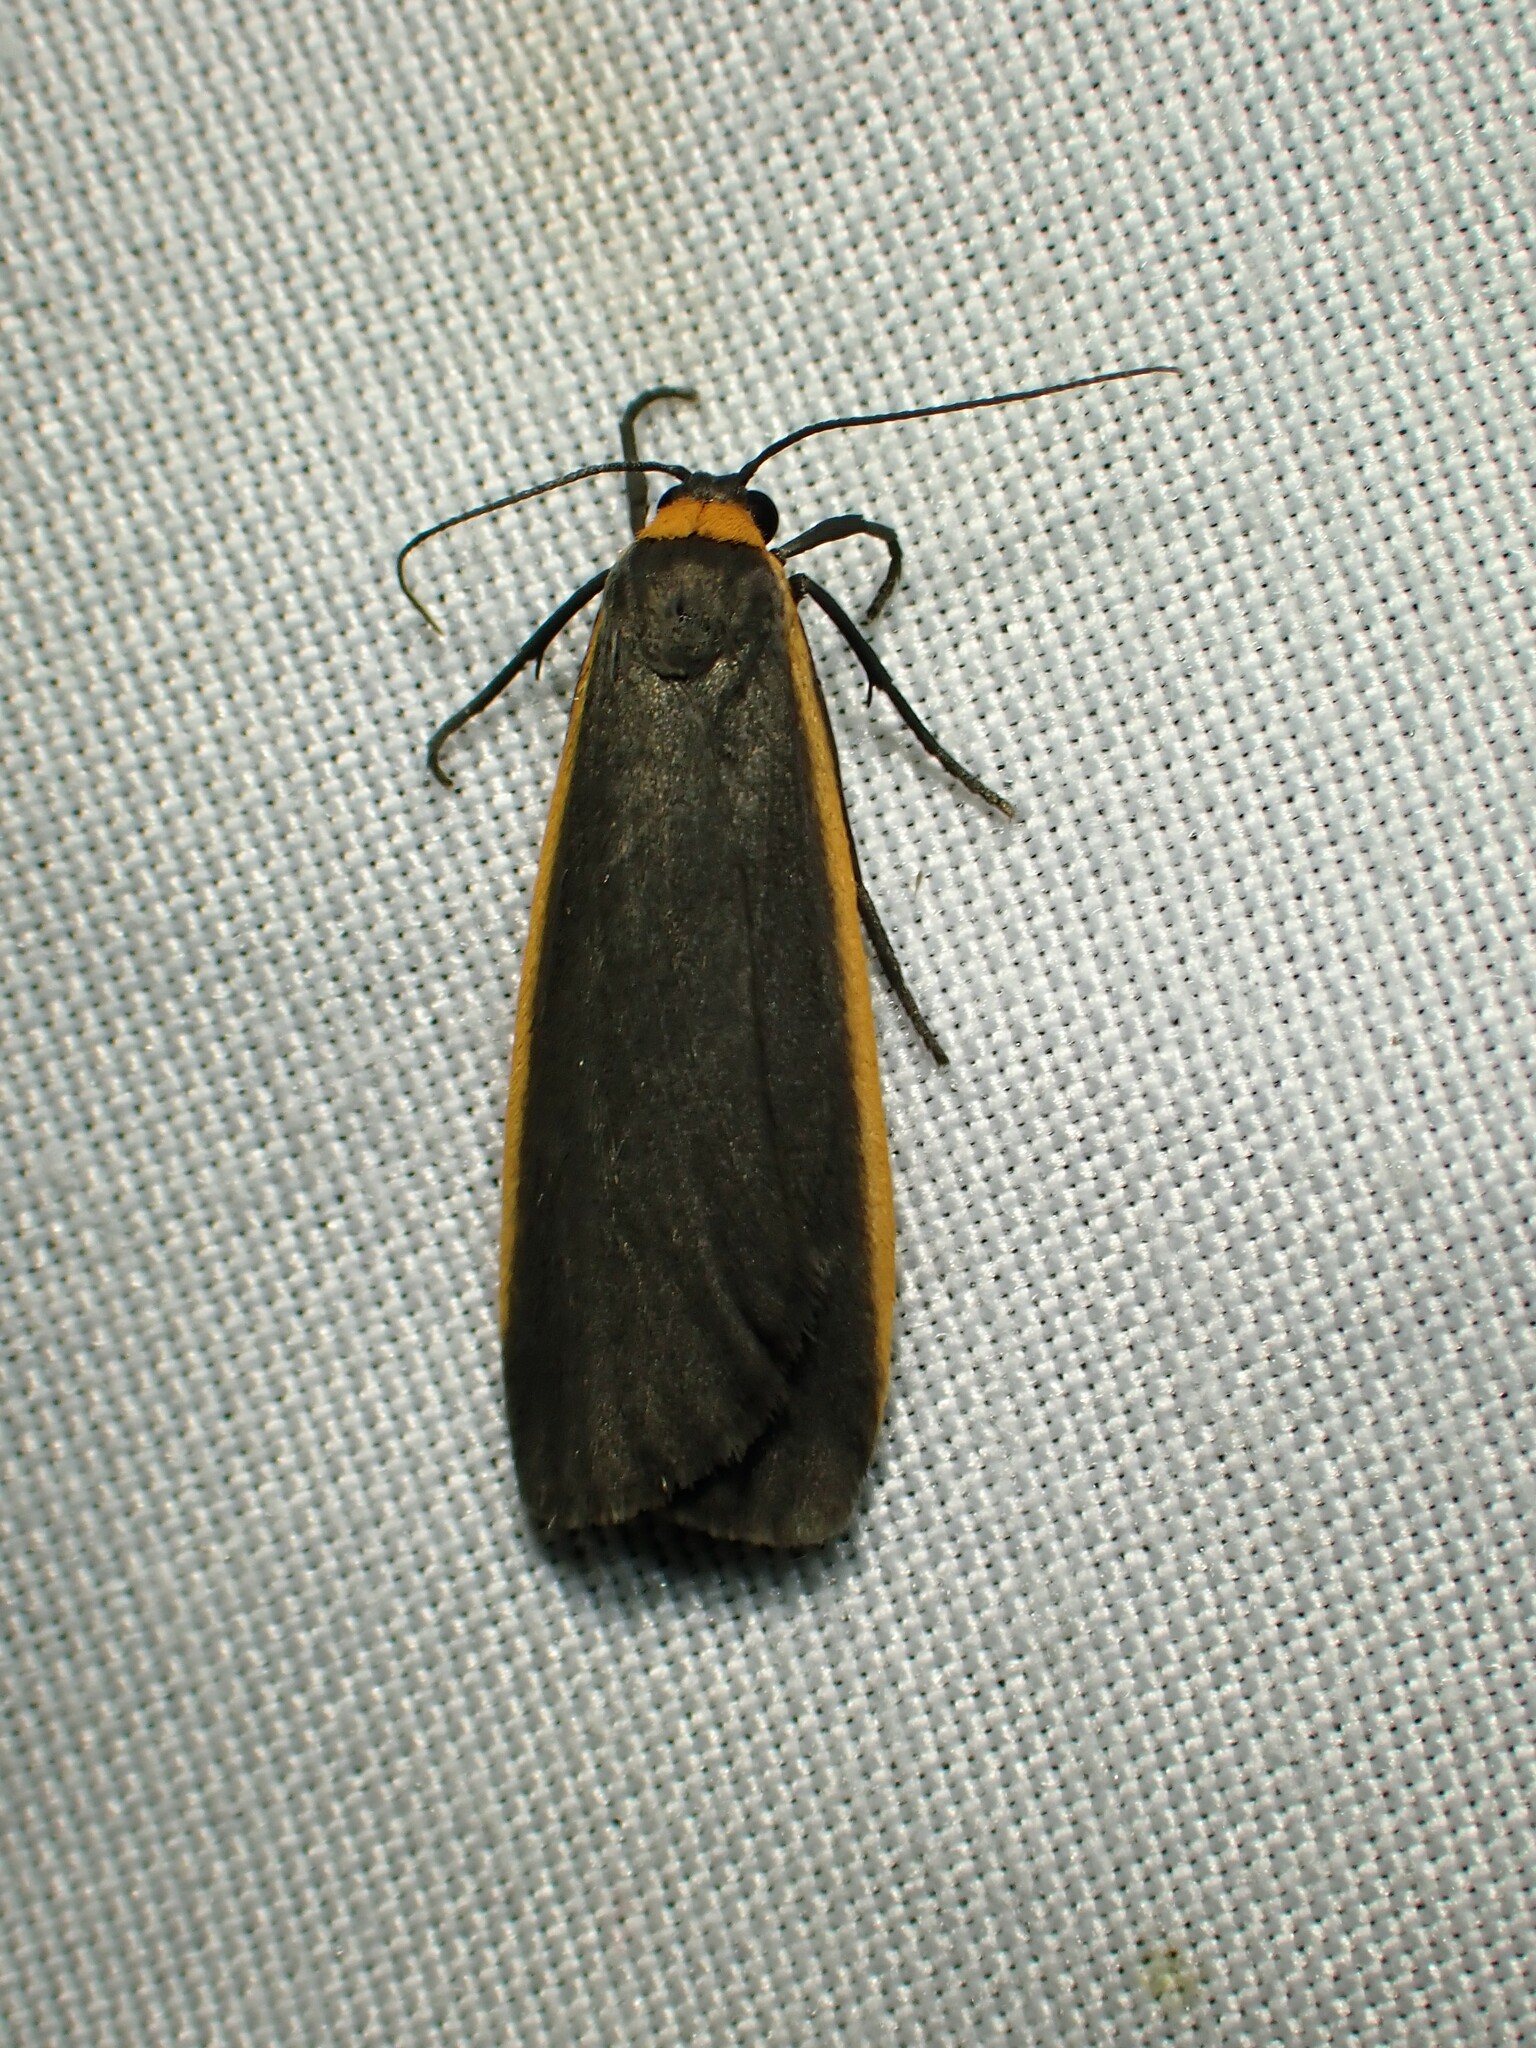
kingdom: Animalia
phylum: Arthropoda
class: Insecta
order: Lepidoptera
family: Erebidae
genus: Manulea
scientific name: Manulea bicolor
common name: Bicolored moth
